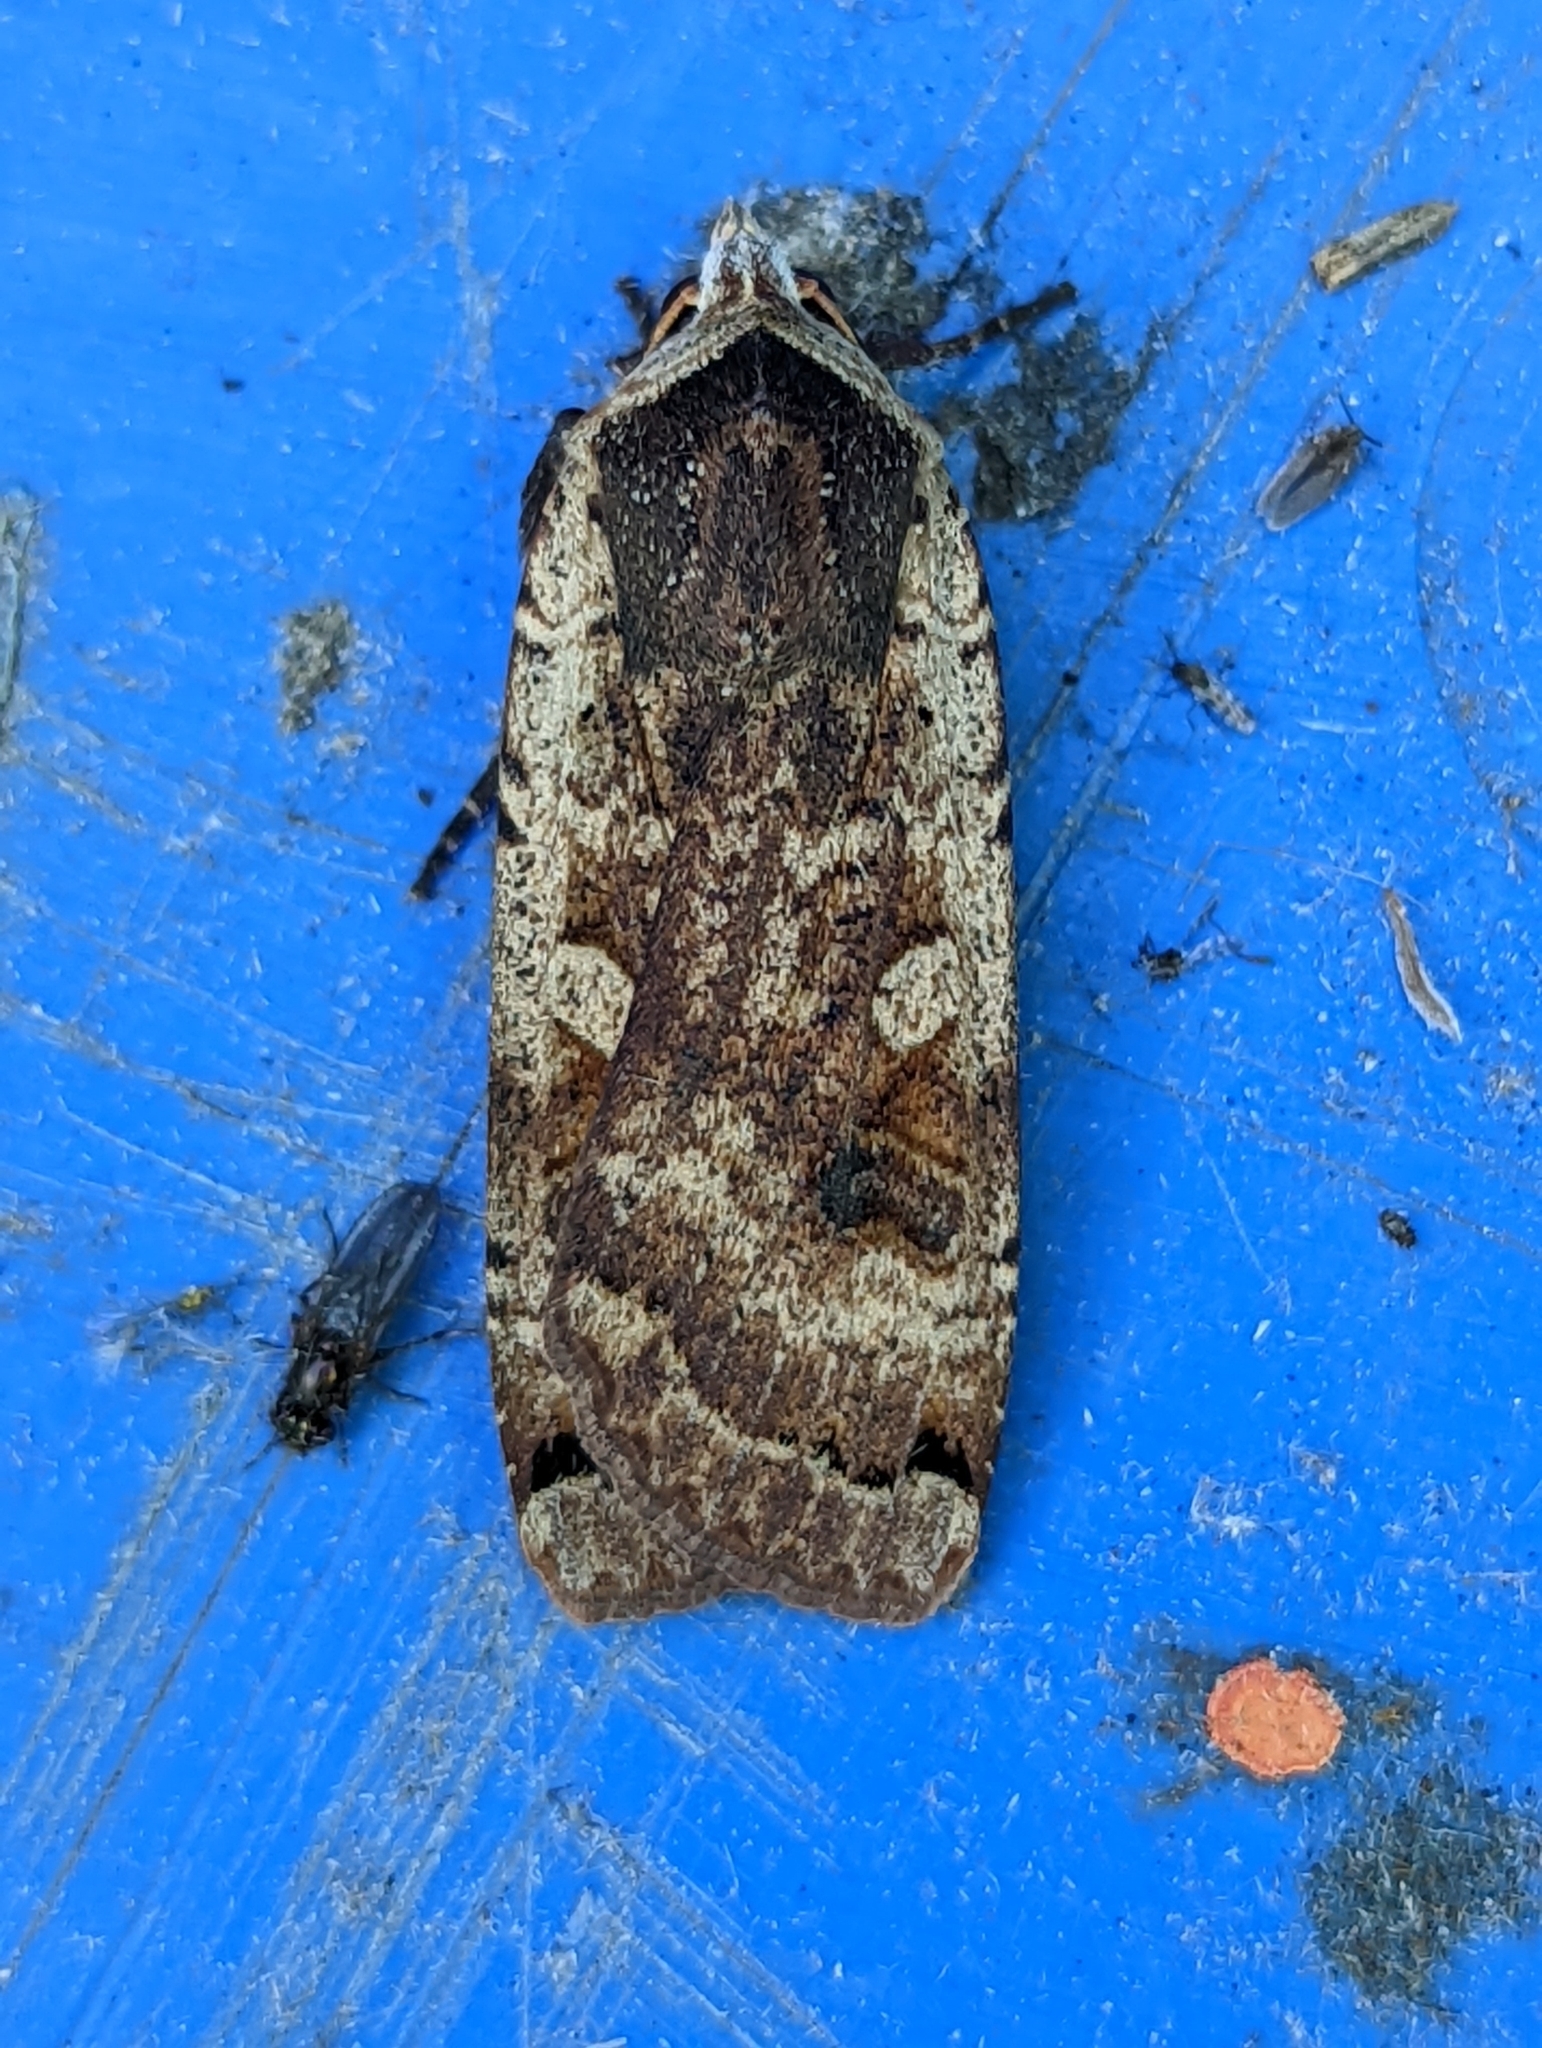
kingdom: Animalia
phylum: Arthropoda
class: Insecta
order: Lepidoptera
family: Noctuidae
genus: Noctua
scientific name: Noctua pronuba
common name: Large yellow underwing
